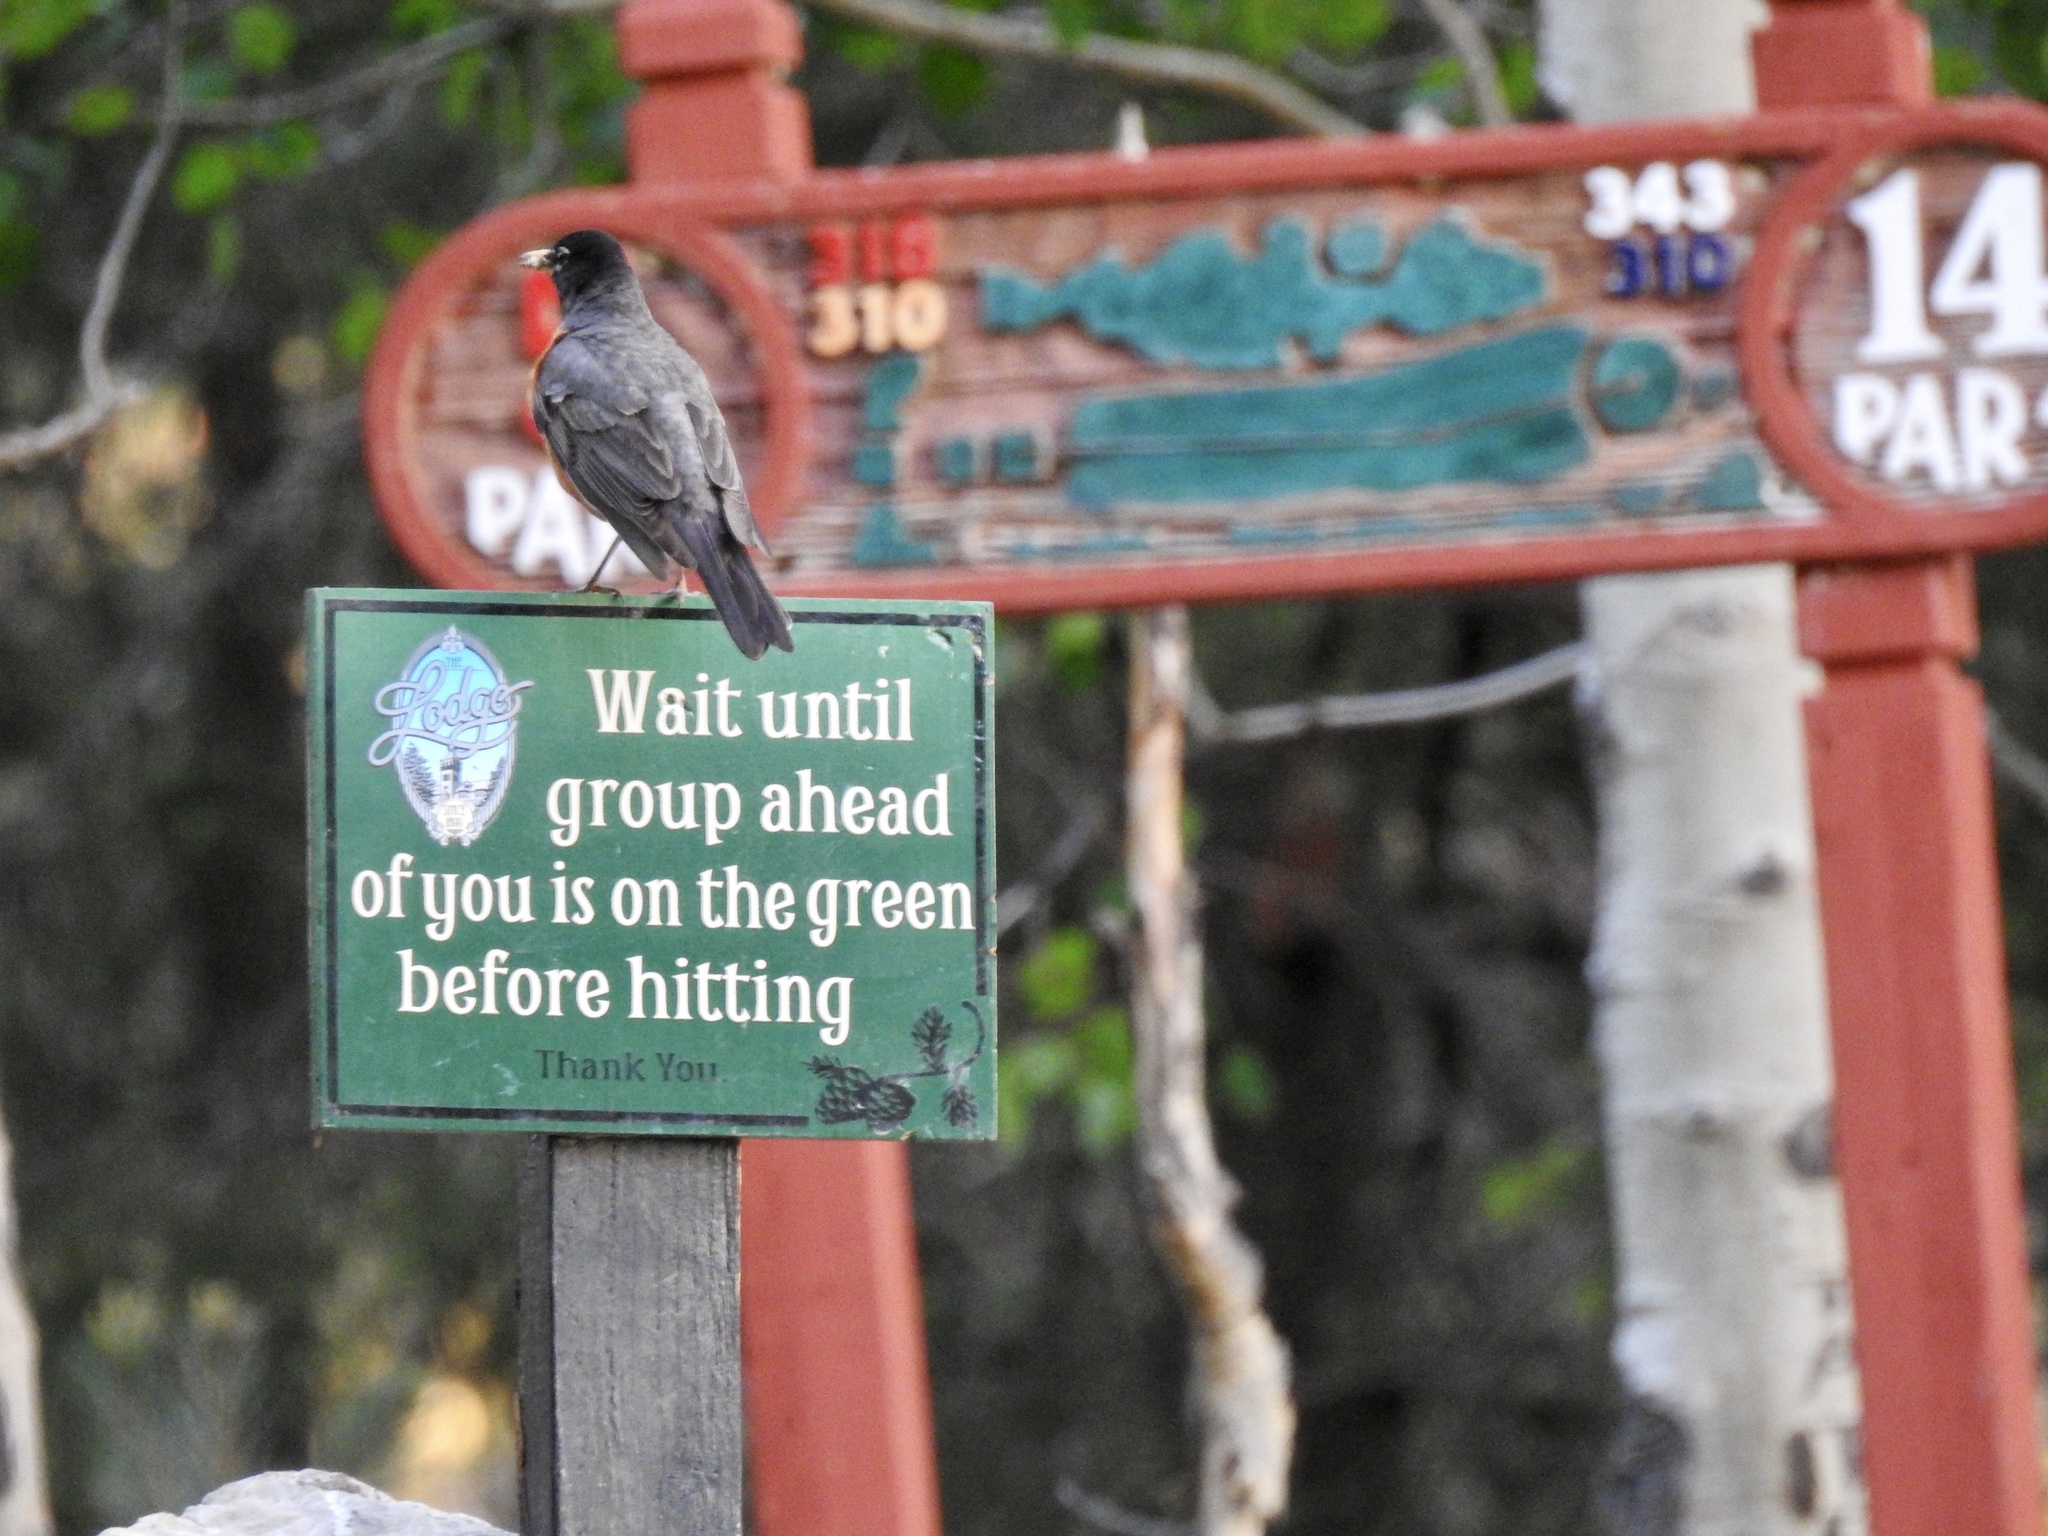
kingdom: Animalia
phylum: Chordata
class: Aves
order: Passeriformes
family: Turdidae
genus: Turdus
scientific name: Turdus migratorius
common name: American robin
